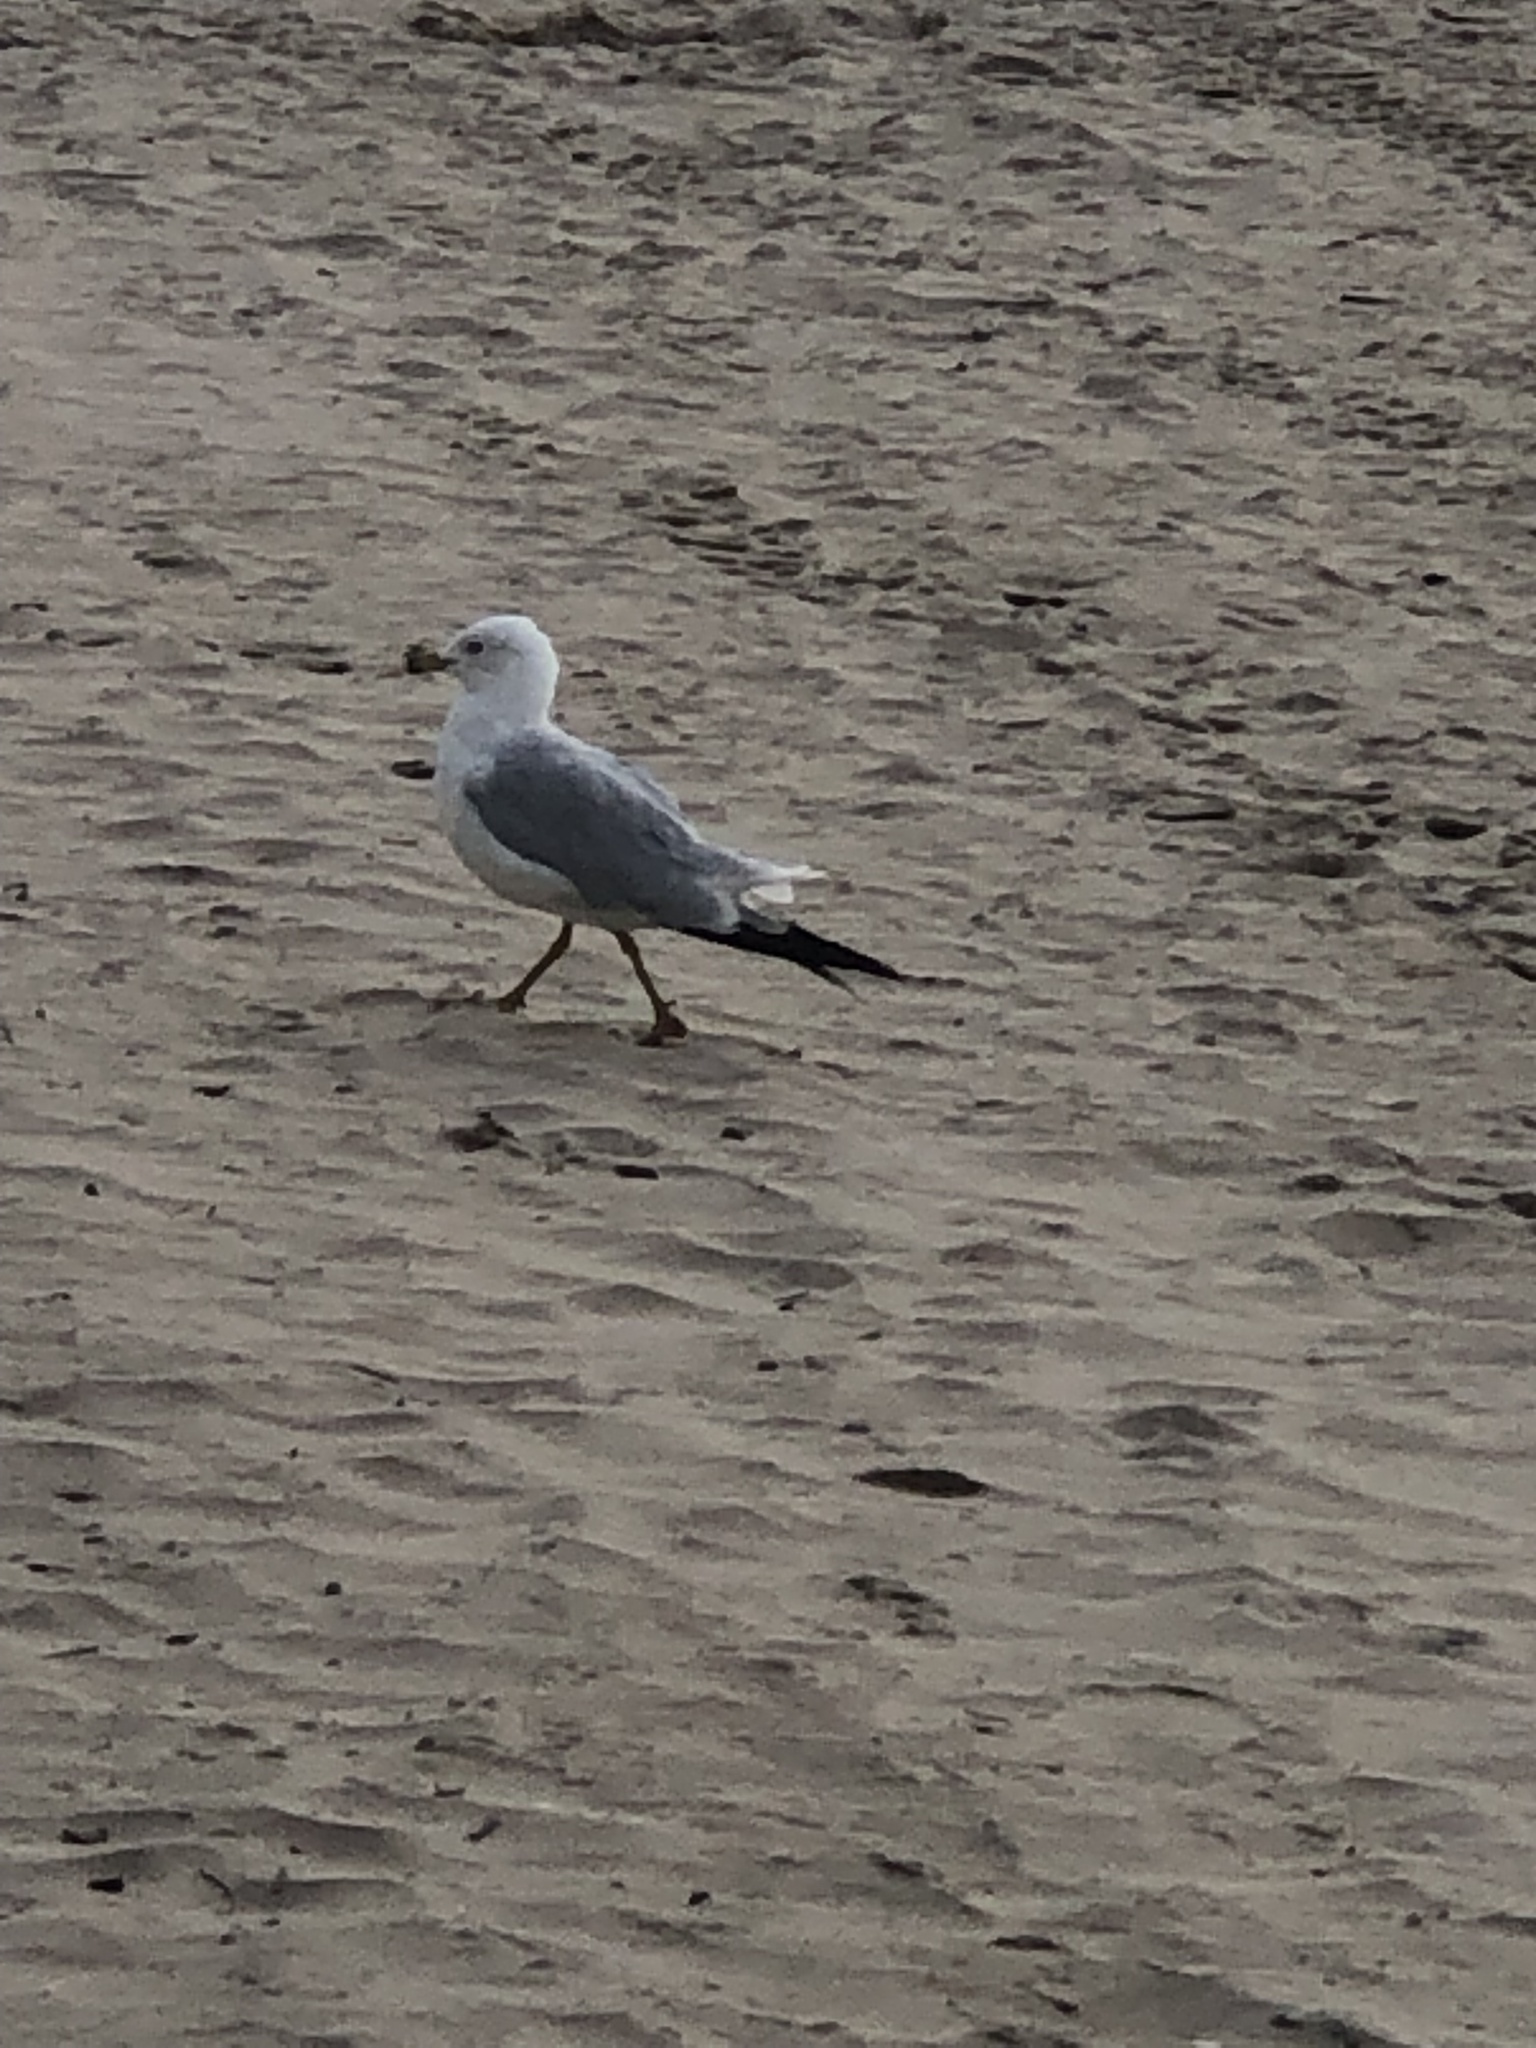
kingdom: Animalia
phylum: Chordata
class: Aves
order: Charadriiformes
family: Laridae
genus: Larus
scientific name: Larus delawarensis
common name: Ring-billed gull
